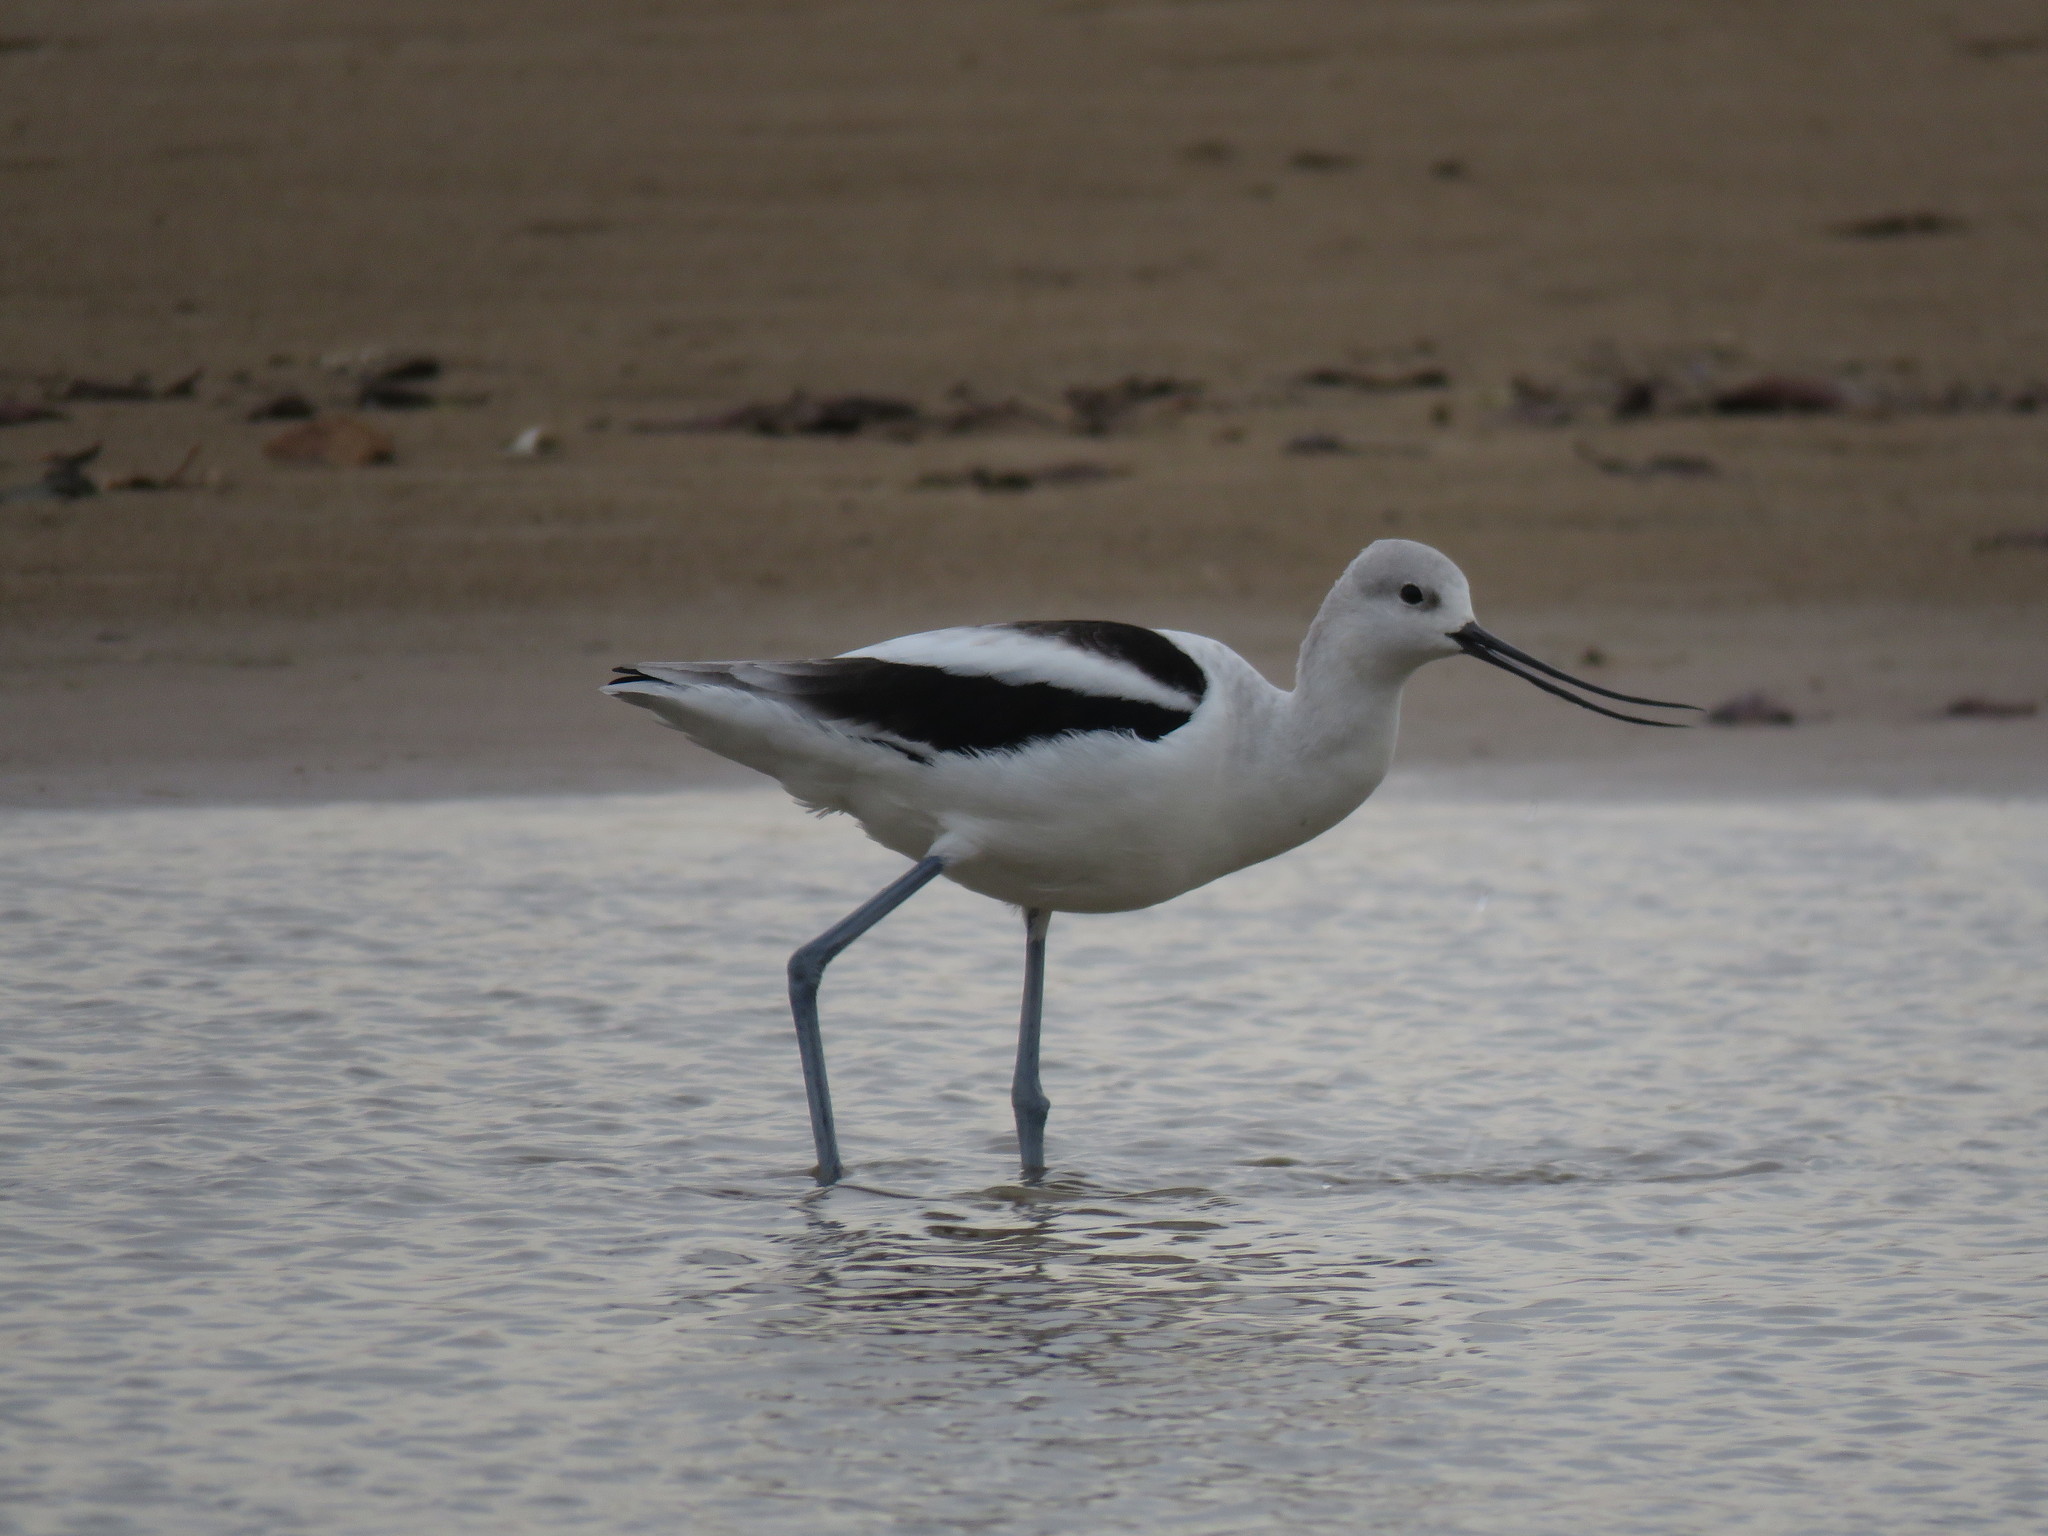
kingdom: Animalia
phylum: Chordata
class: Aves
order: Charadriiformes
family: Recurvirostridae
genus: Recurvirostra
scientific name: Recurvirostra americana
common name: American avocet
